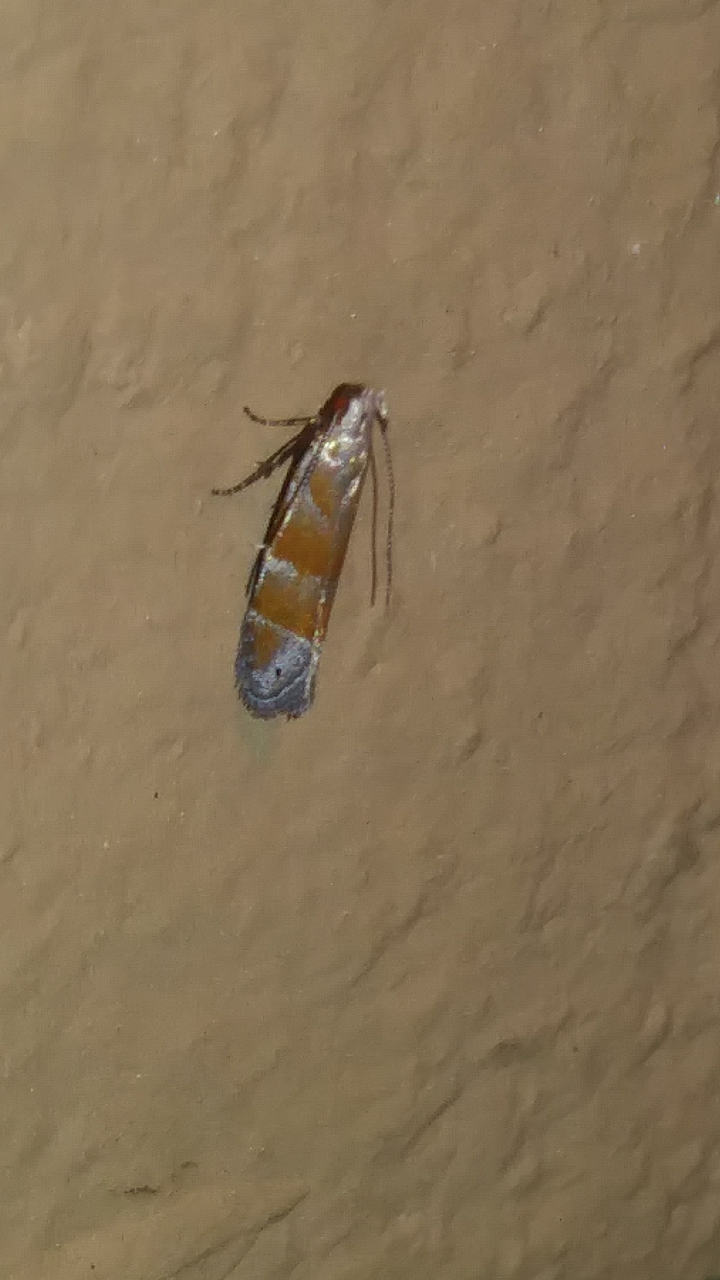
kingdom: Animalia
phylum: Arthropoda
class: Insecta
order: Lepidoptera
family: Gelechiidae
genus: Battaristis
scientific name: Battaristis vittella
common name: Orange stripe-backed moth
